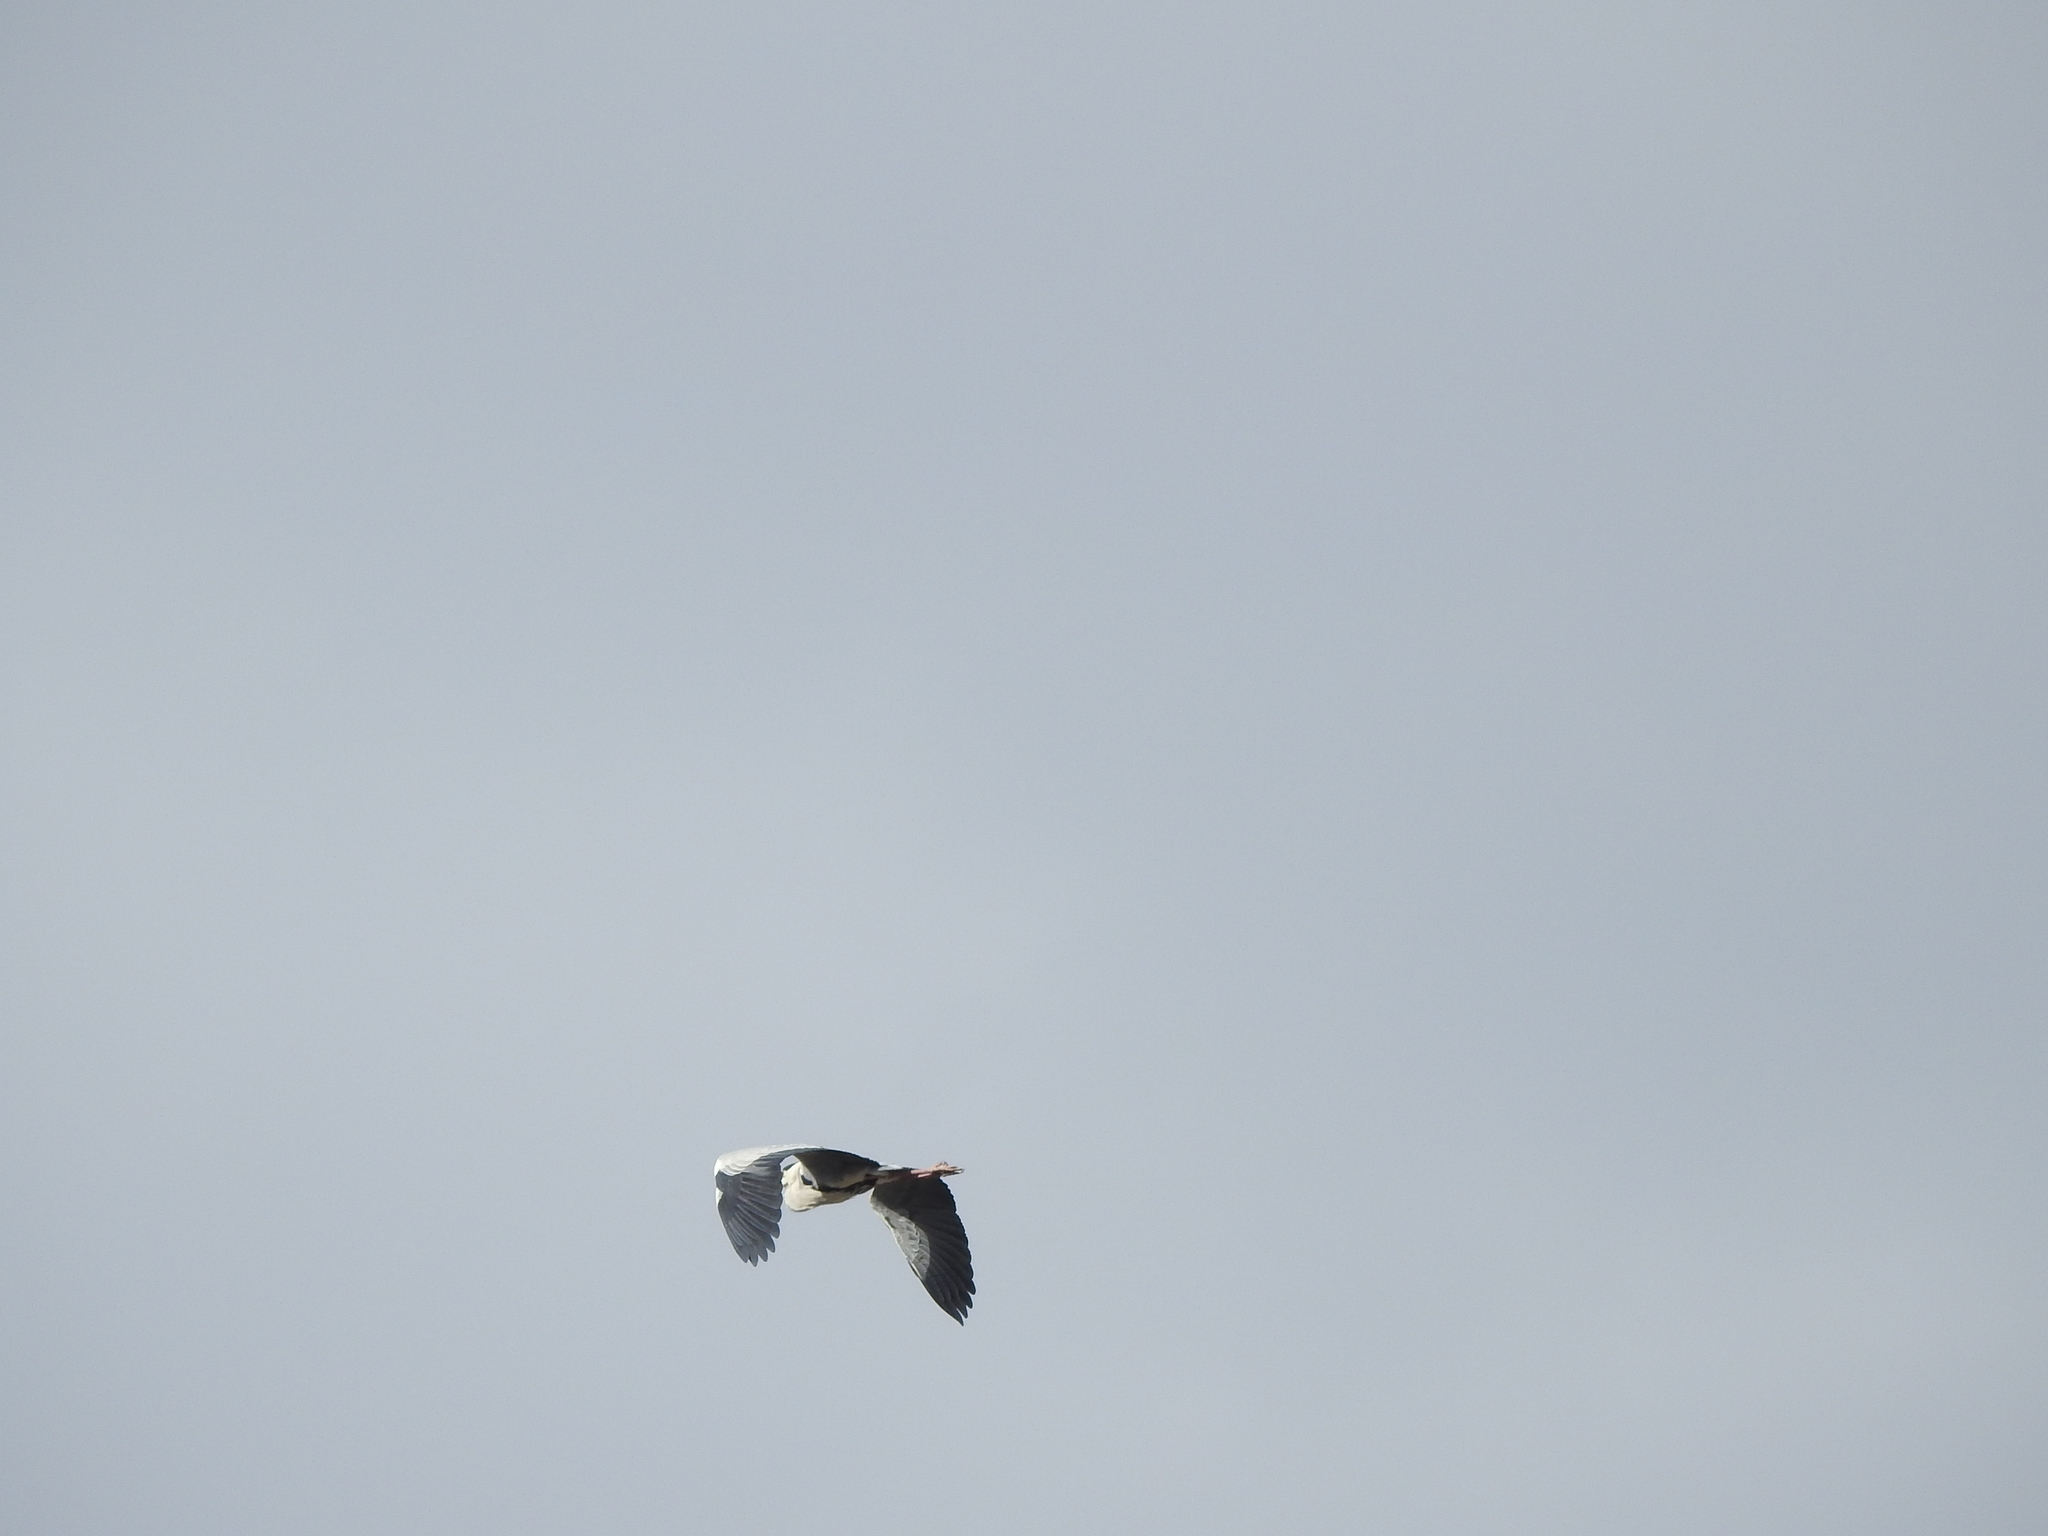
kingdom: Animalia
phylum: Chordata
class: Aves
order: Pelecaniformes
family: Ardeidae
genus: Ardea
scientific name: Ardea cinerea
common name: Grey heron
